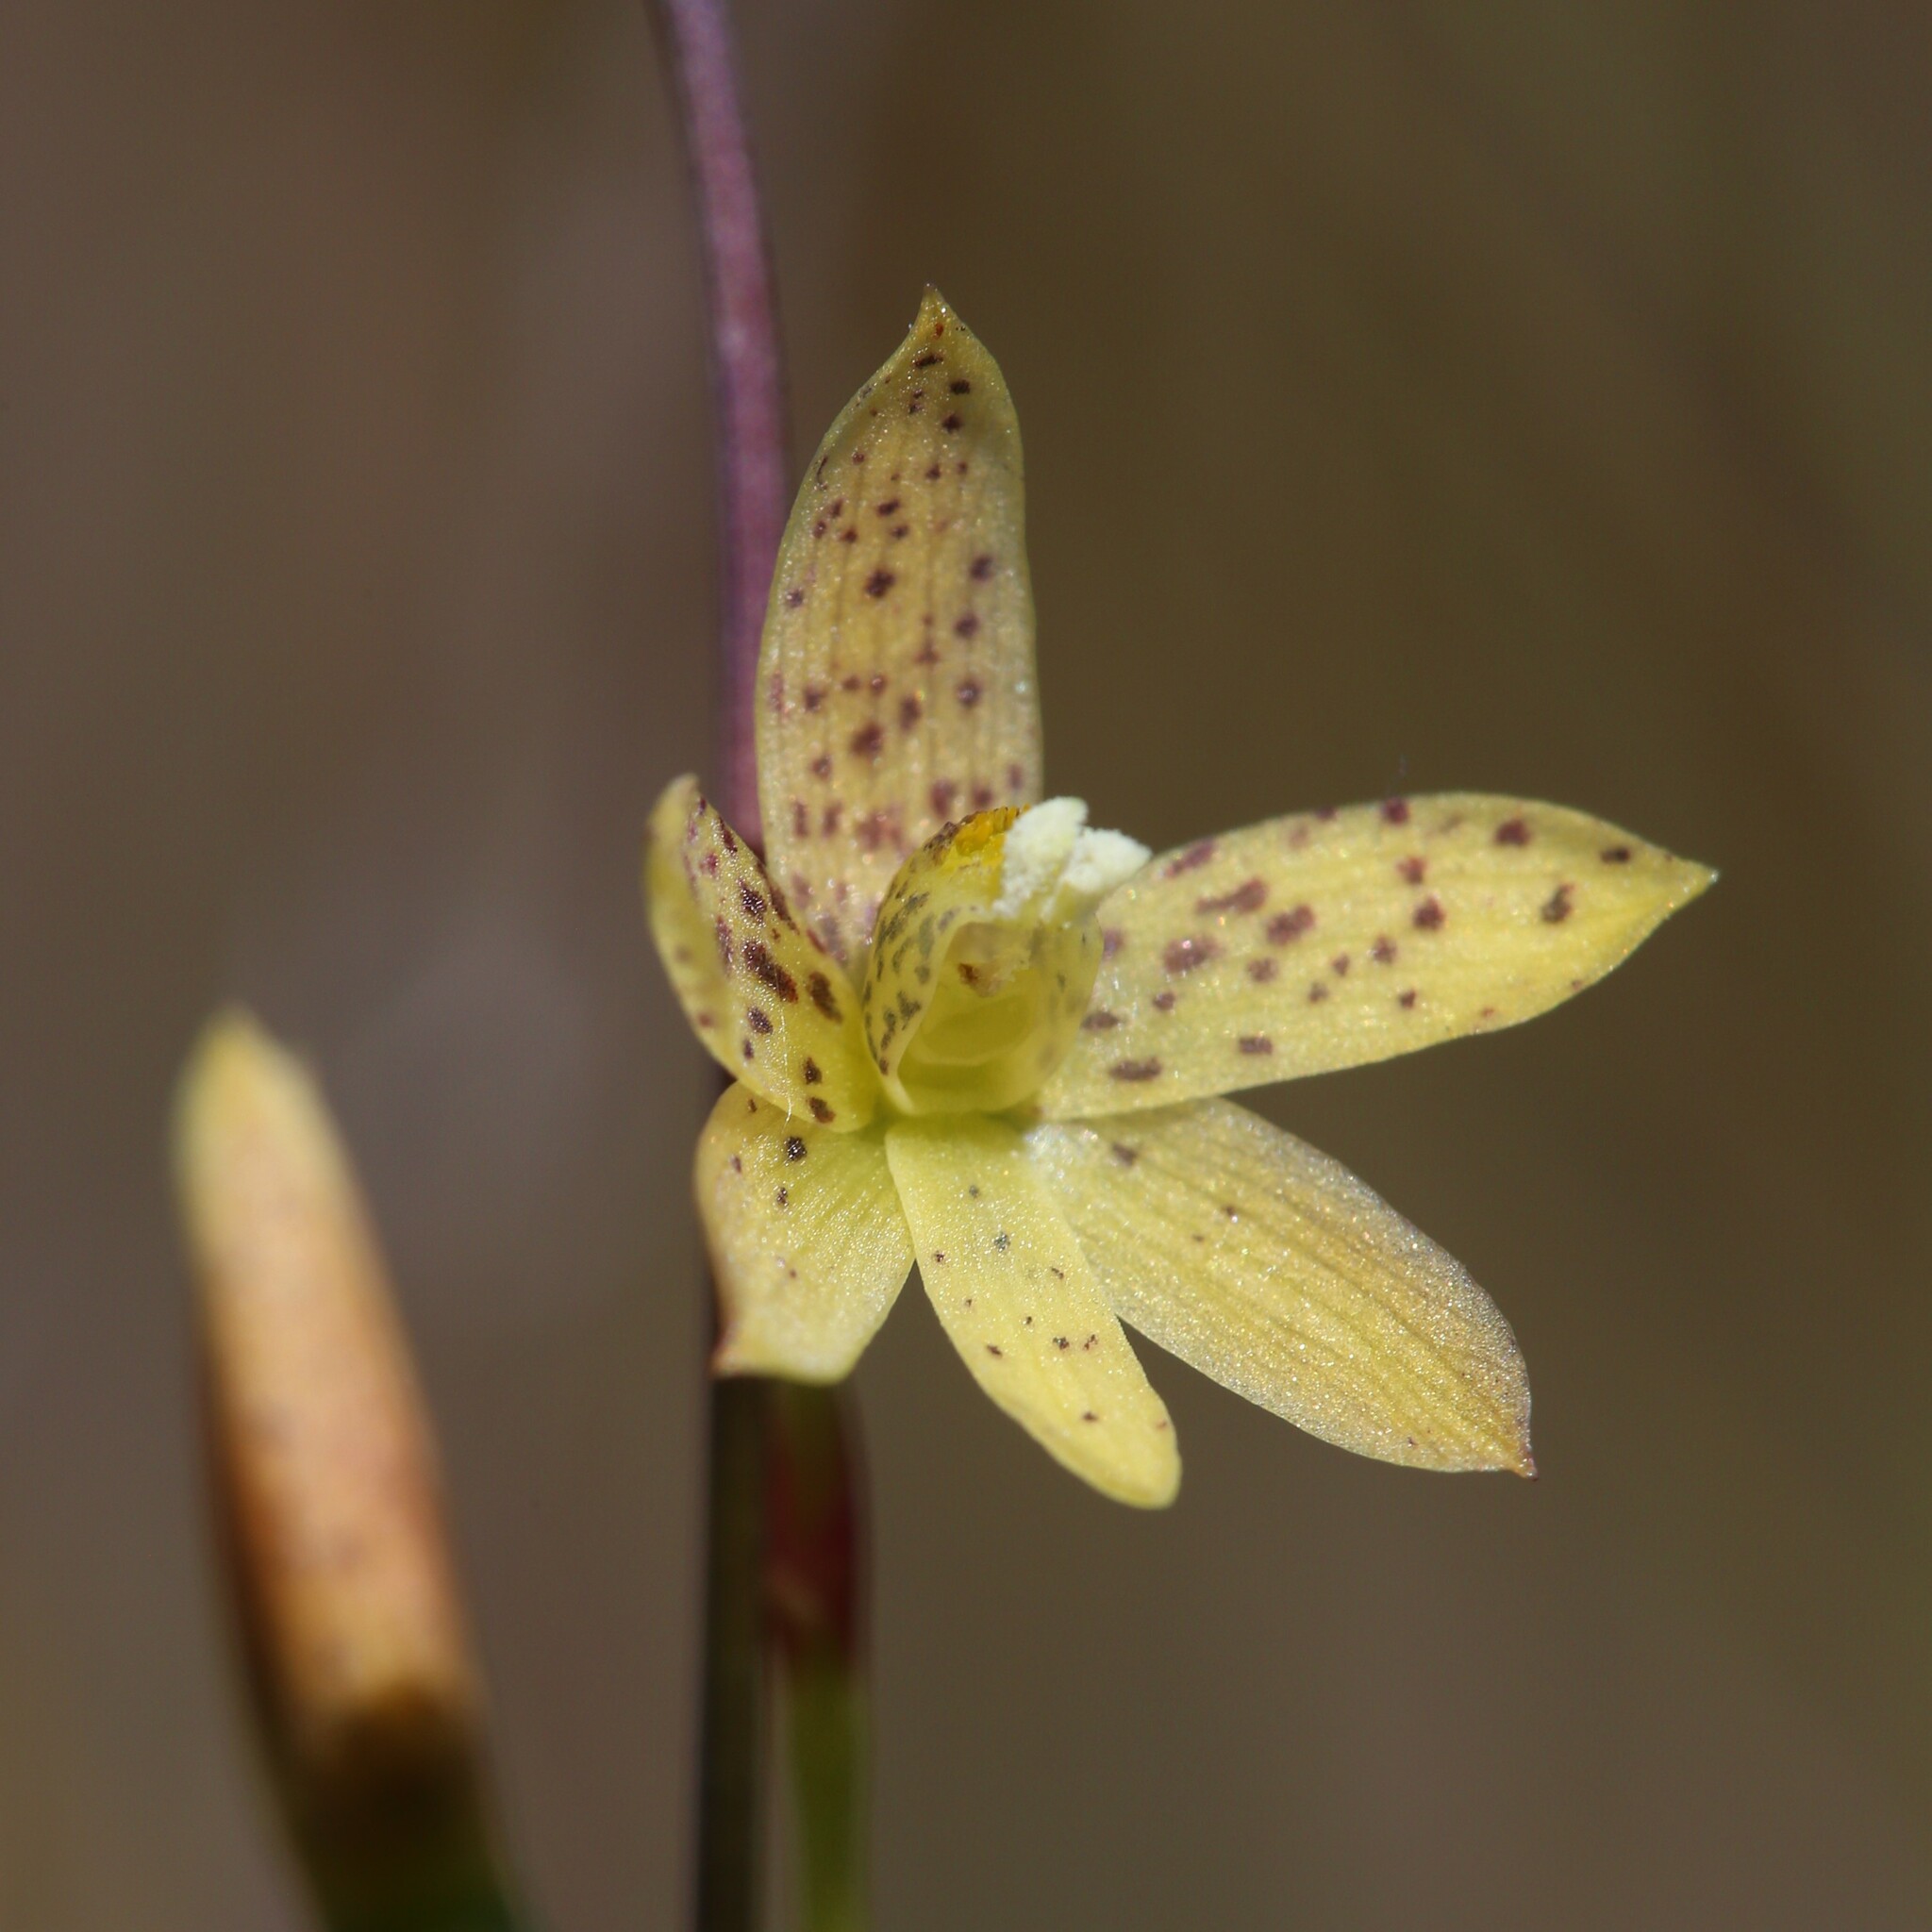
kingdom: Plantae
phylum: Tracheophyta
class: Liliopsida
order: Asparagales
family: Orchidaceae
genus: Thelymitra
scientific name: Thelymitra tigrina
